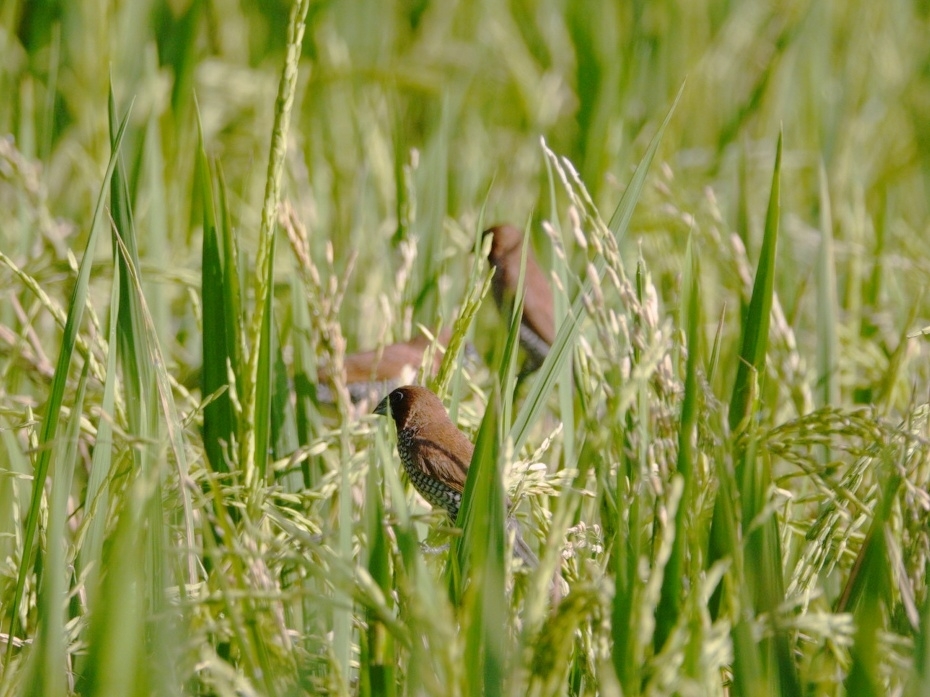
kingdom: Animalia
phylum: Chordata
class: Aves
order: Passeriformes
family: Estrildidae
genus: Lonchura
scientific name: Lonchura punctulata
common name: Scaly-breasted munia
